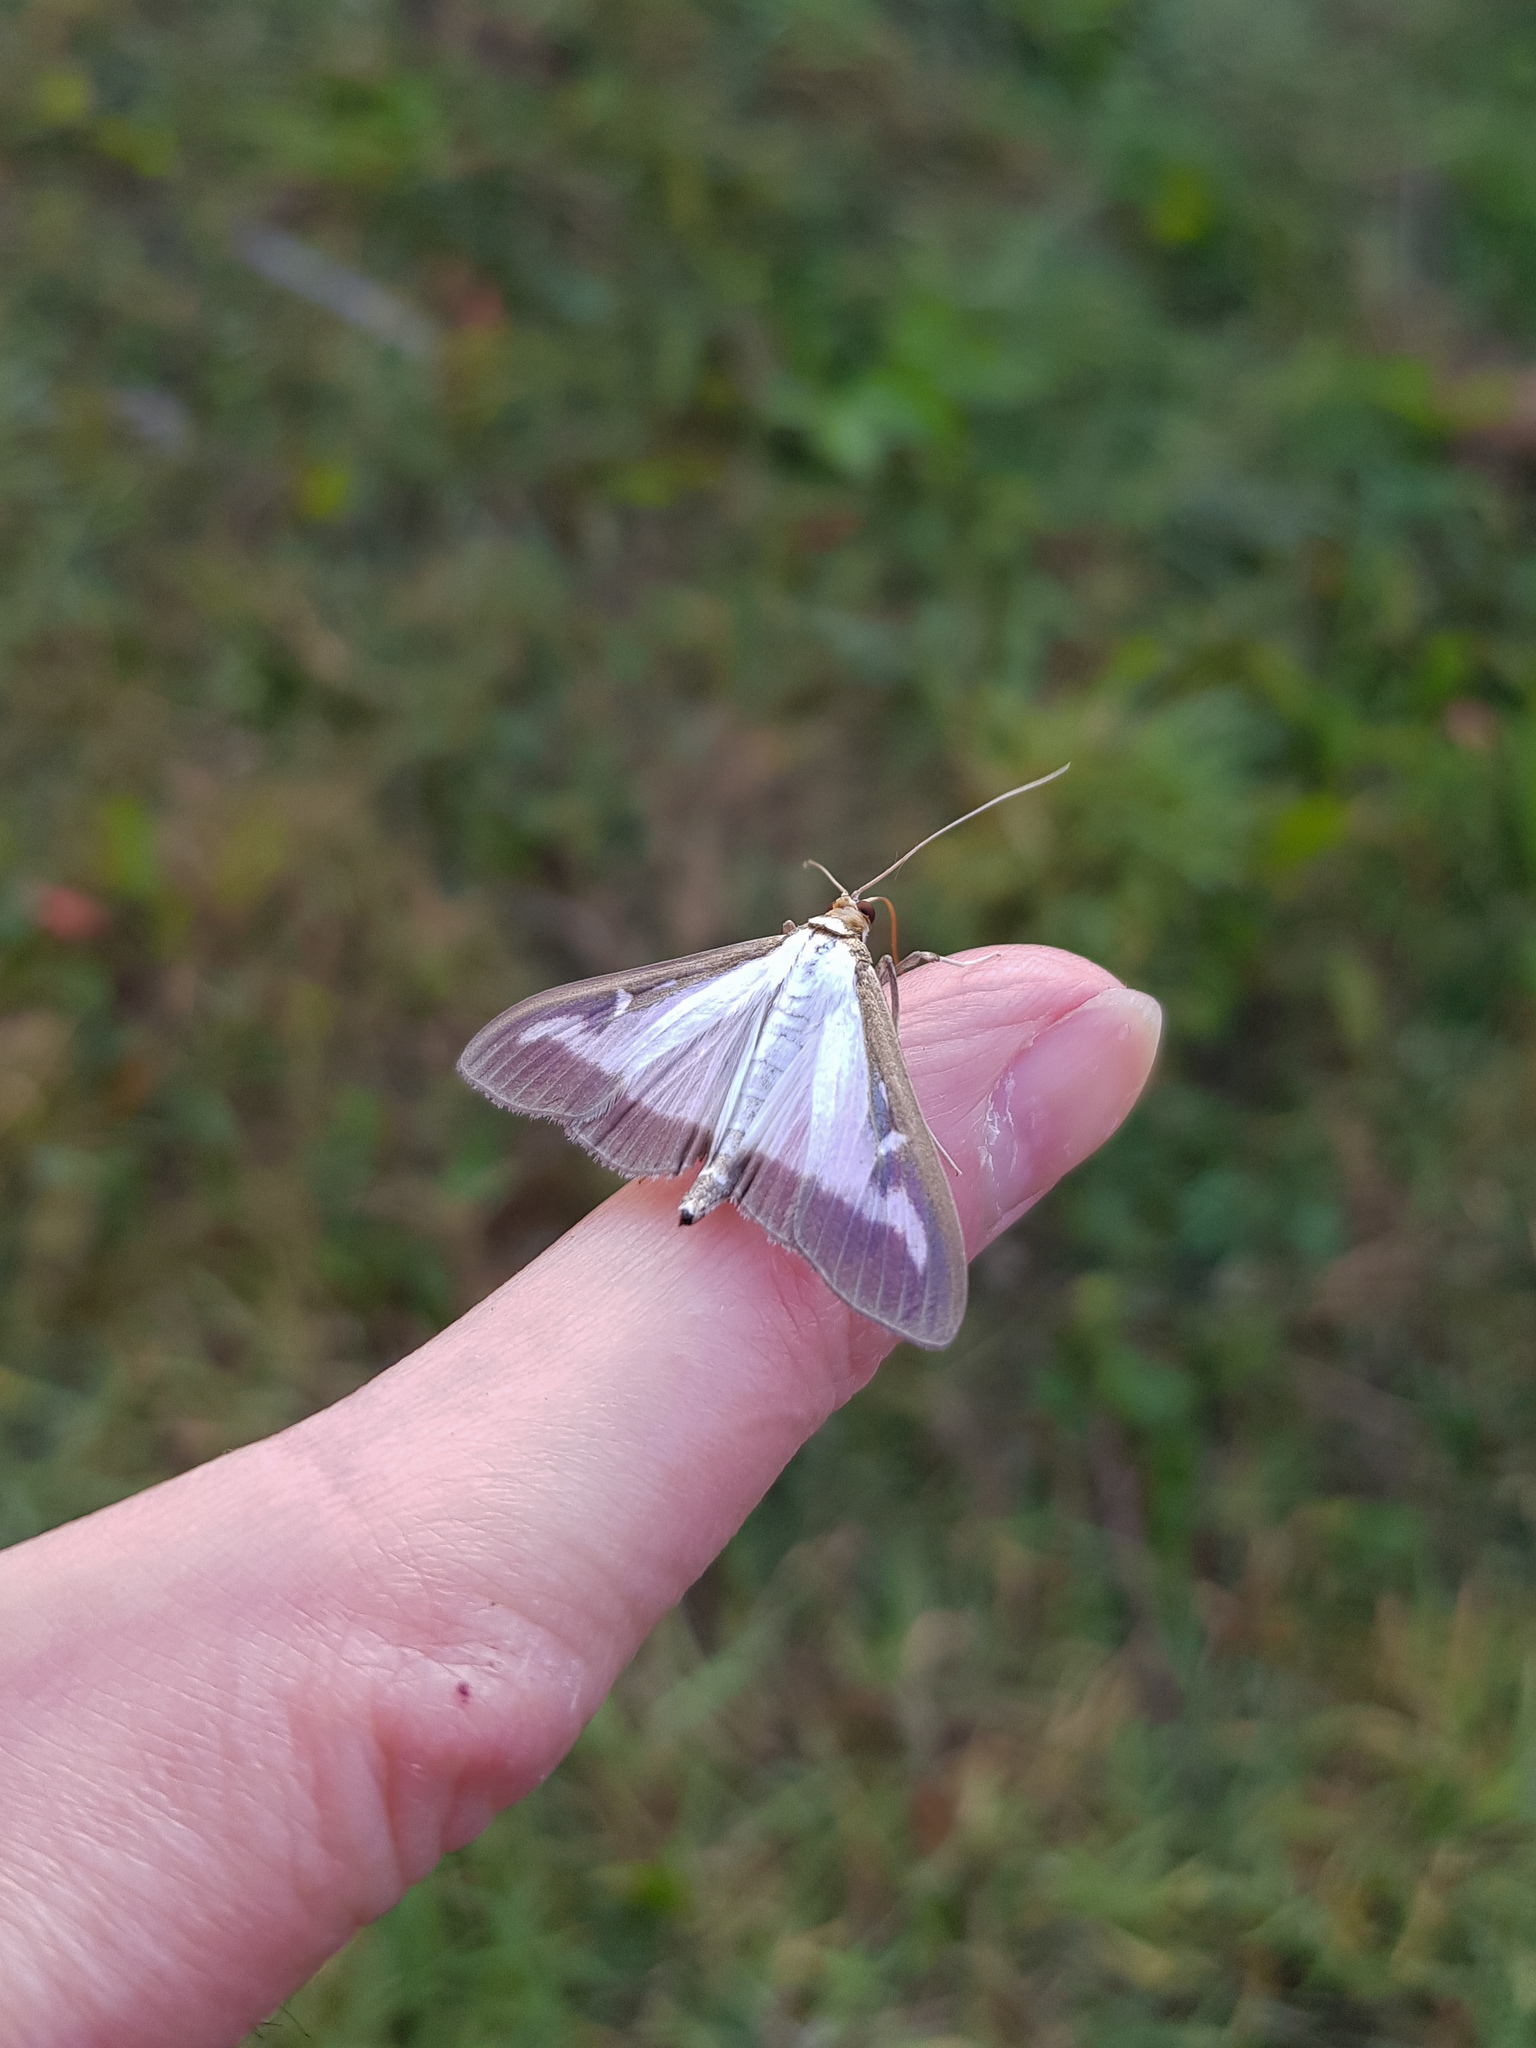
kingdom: Animalia
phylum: Arthropoda
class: Insecta
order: Lepidoptera
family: Crambidae
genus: Cydalima
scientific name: Cydalima perspectalis
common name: Box tree moth
